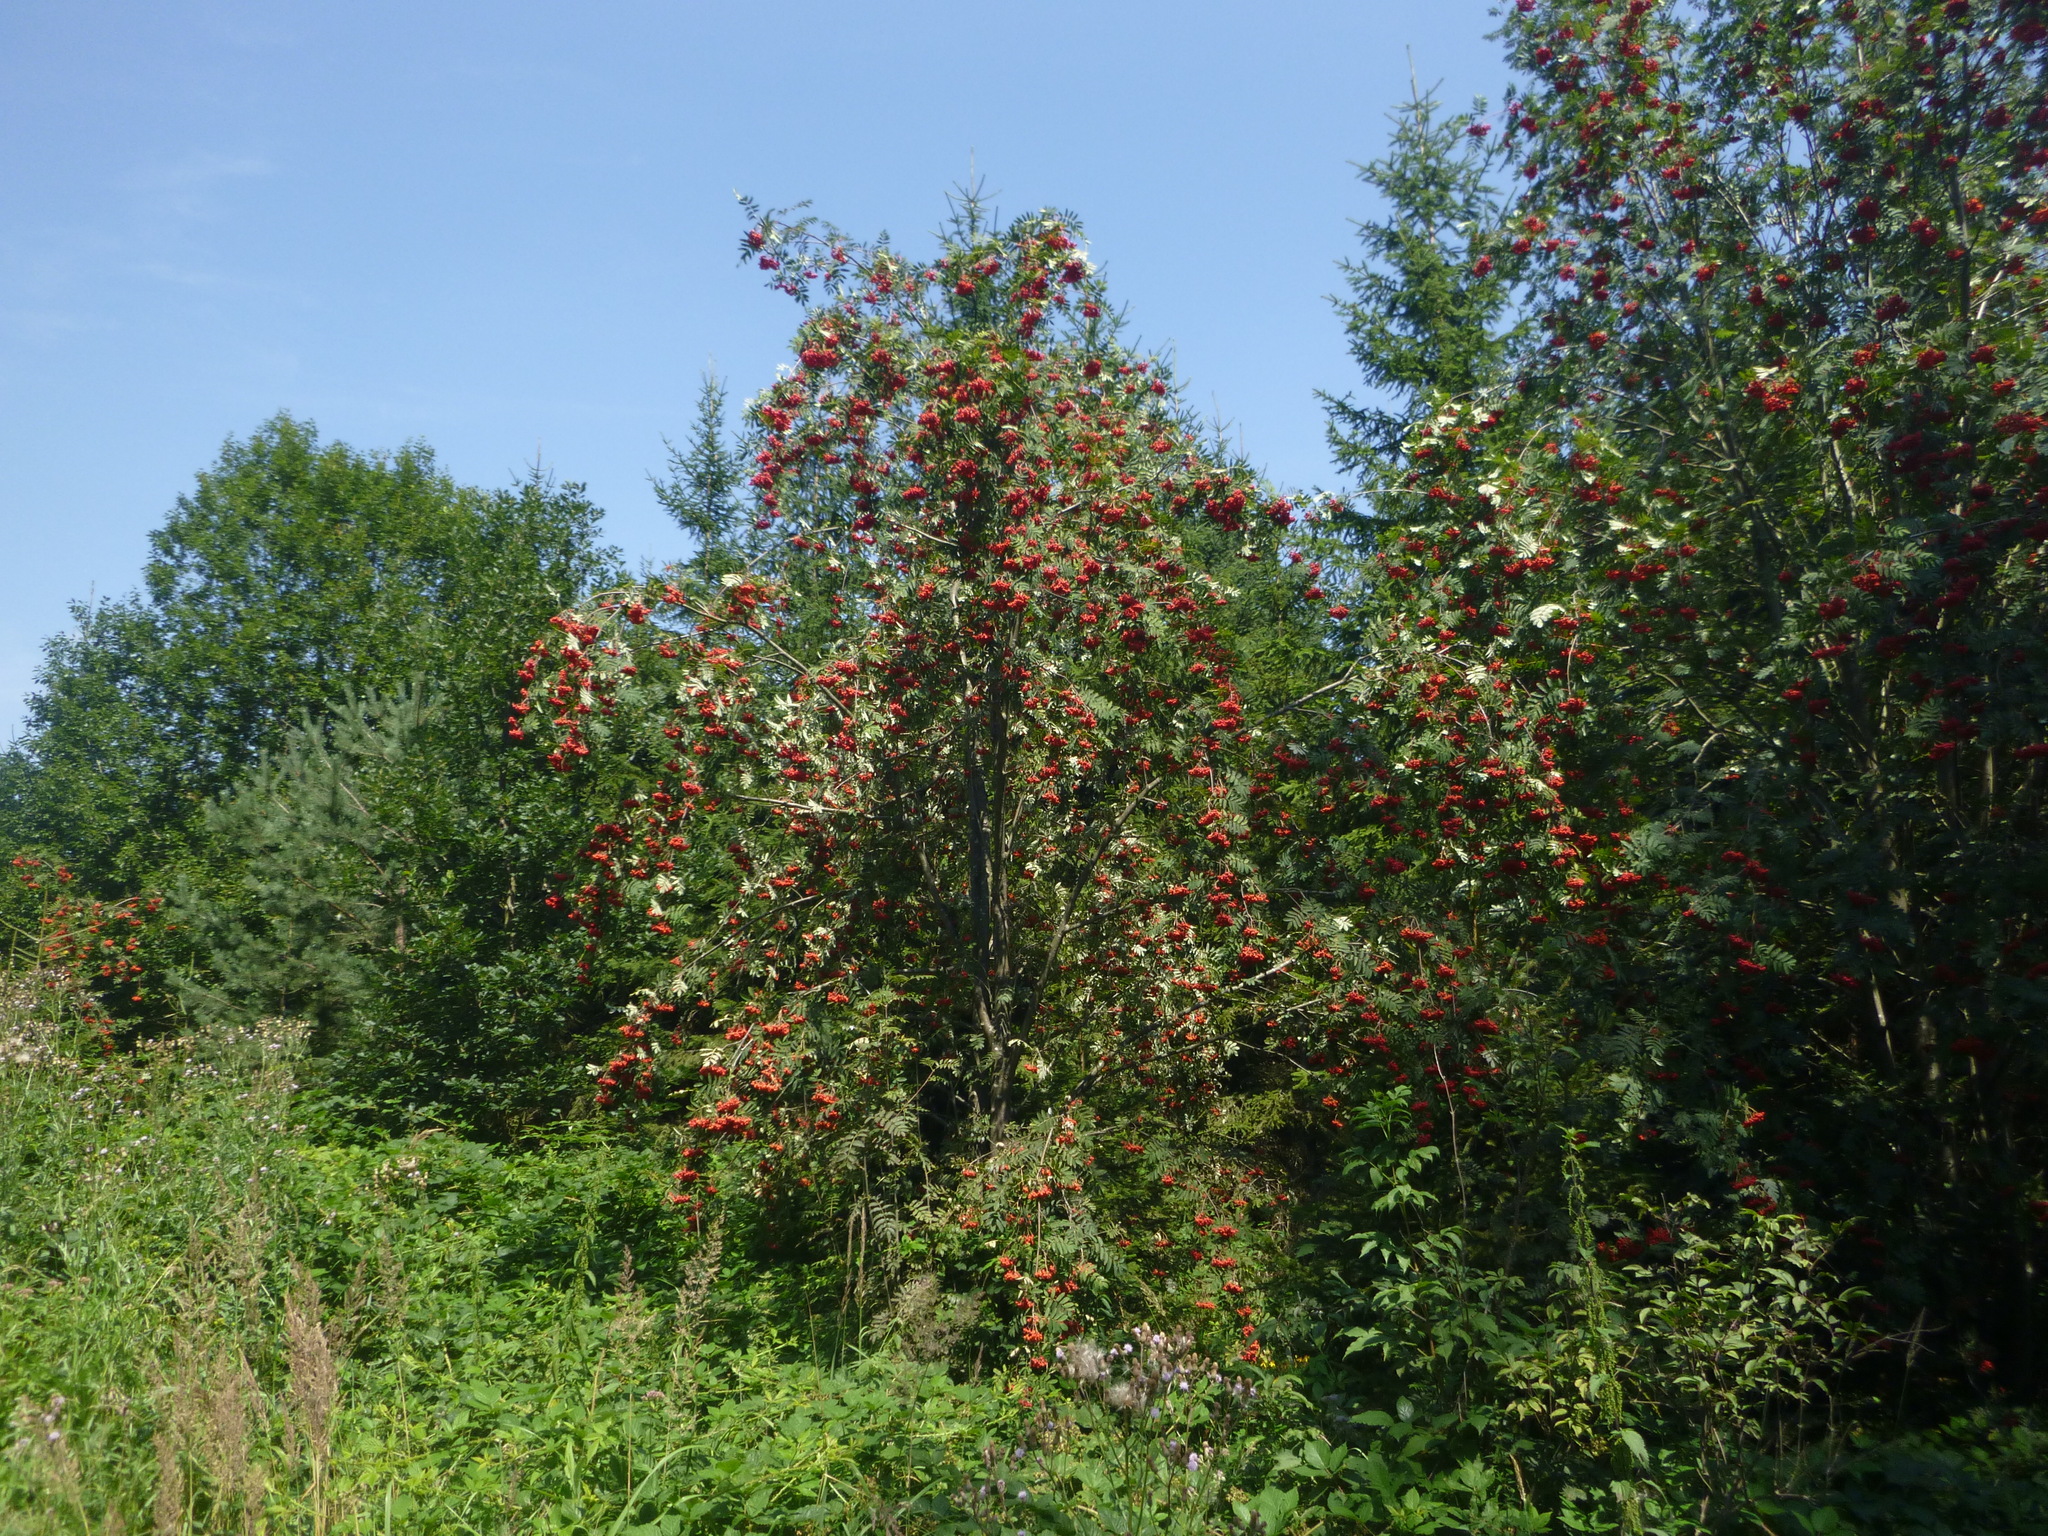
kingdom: Plantae
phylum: Tracheophyta
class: Magnoliopsida
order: Rosales
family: Rosaceae
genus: Sorbus
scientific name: Sorbus aucuparia
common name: Rowan
